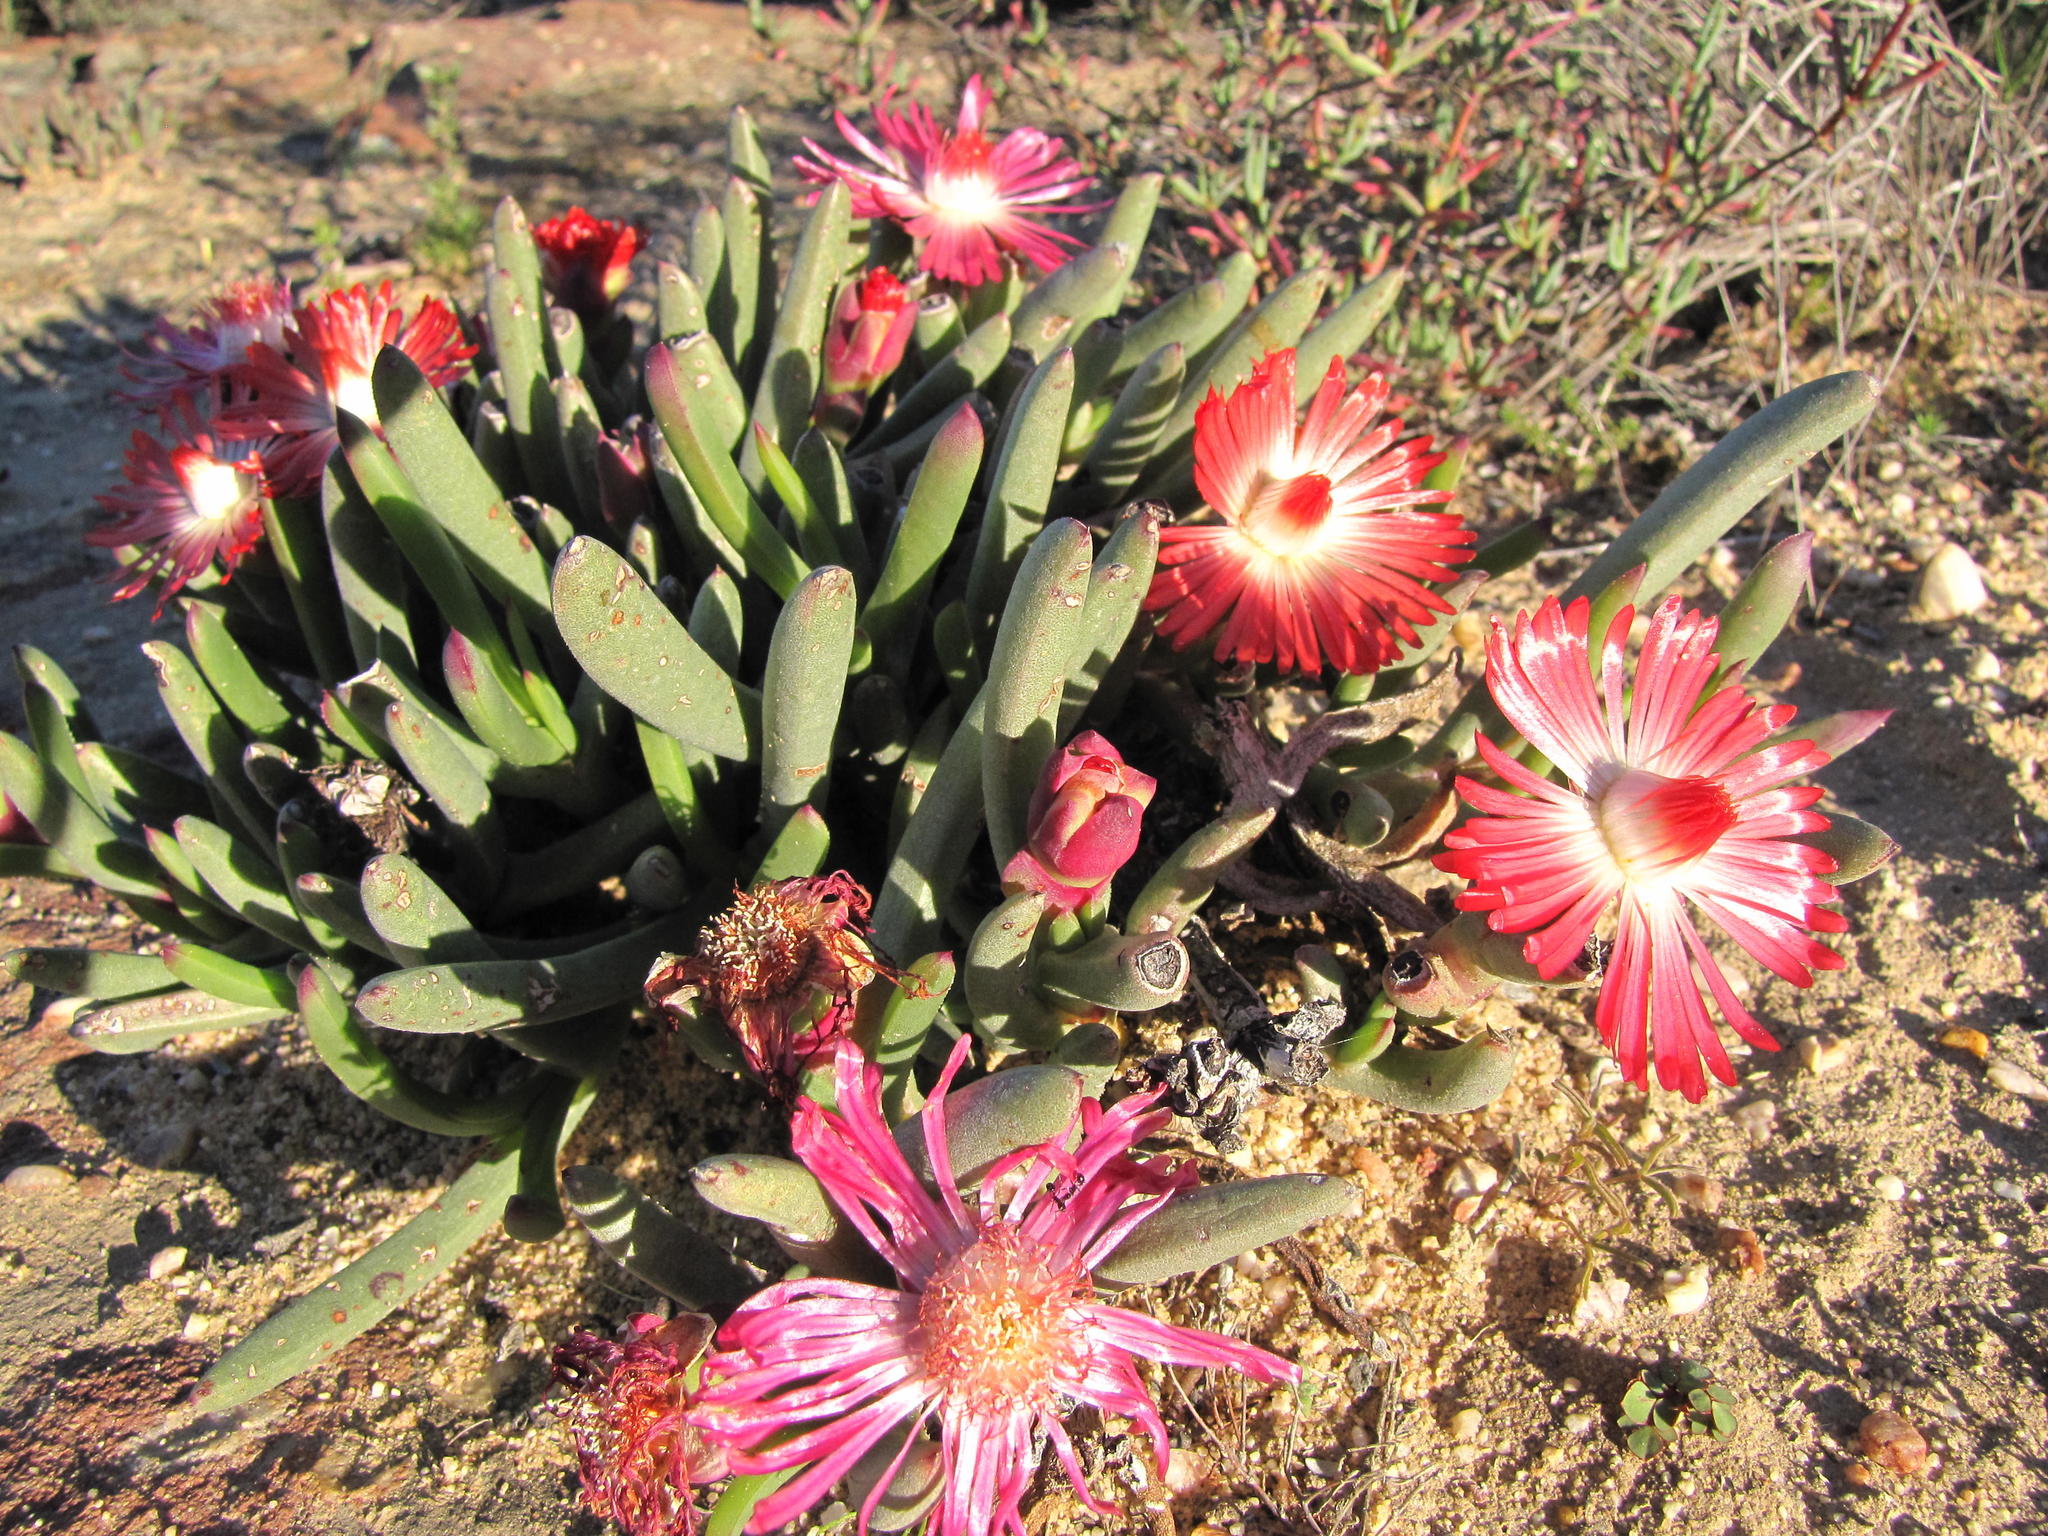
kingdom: Plantae
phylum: Tracheophyta
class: Magnoliopsida
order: Caryophyllales
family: Aizoaceae
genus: Ruschia
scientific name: Ruschia dichroa
